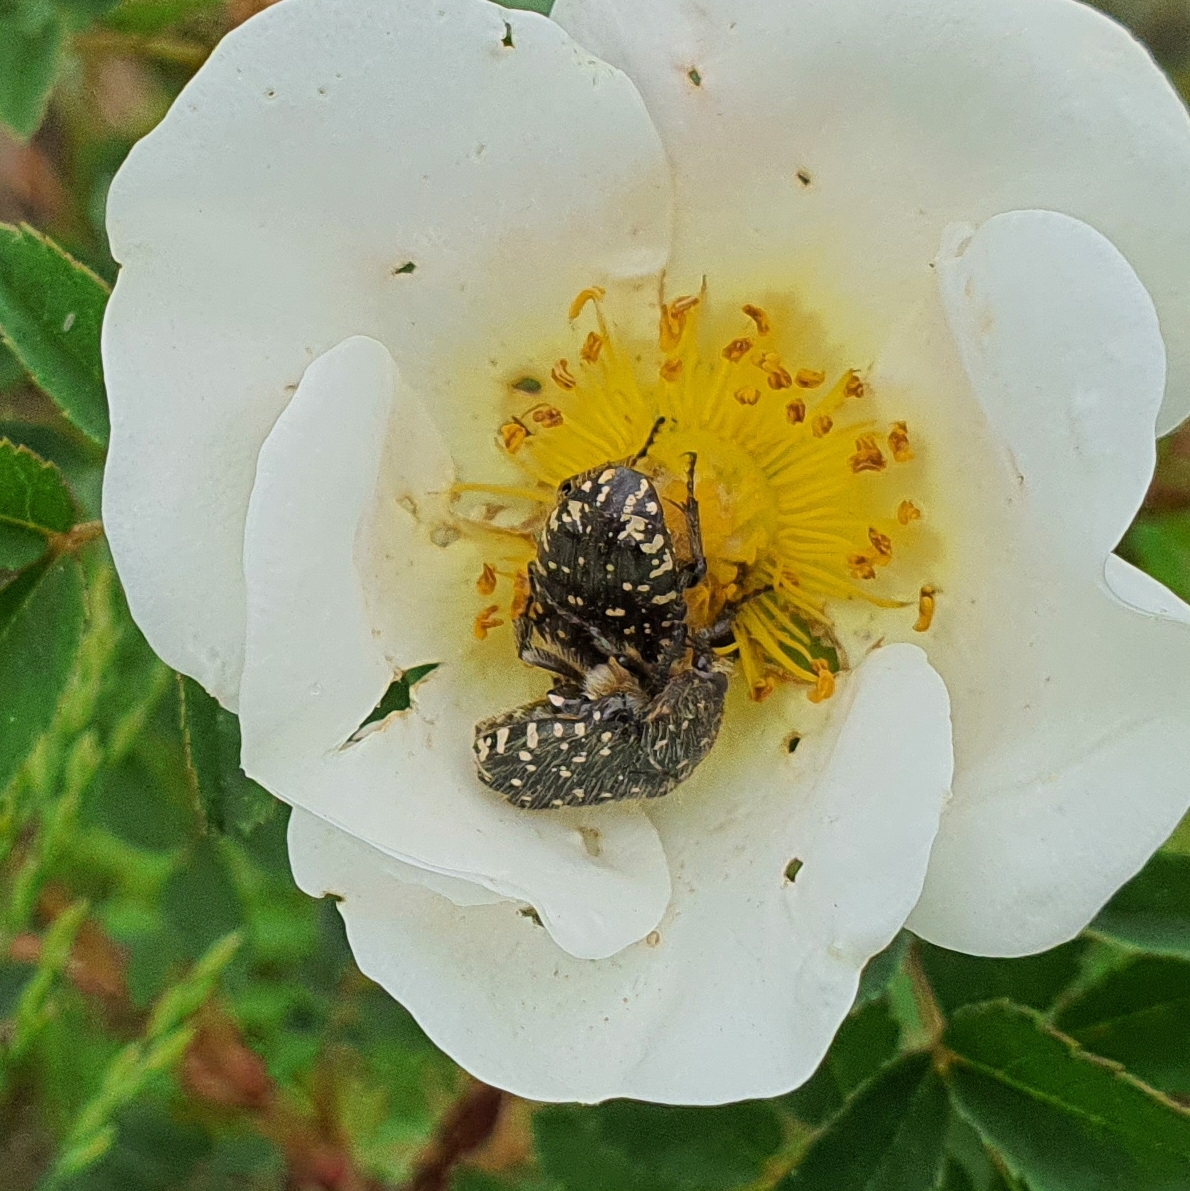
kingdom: Animalia
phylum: Arthropoda
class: Insecta
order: Coleoptera
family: Scarabaeidae
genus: Oxythyrea
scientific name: Oxythyrea funesta
